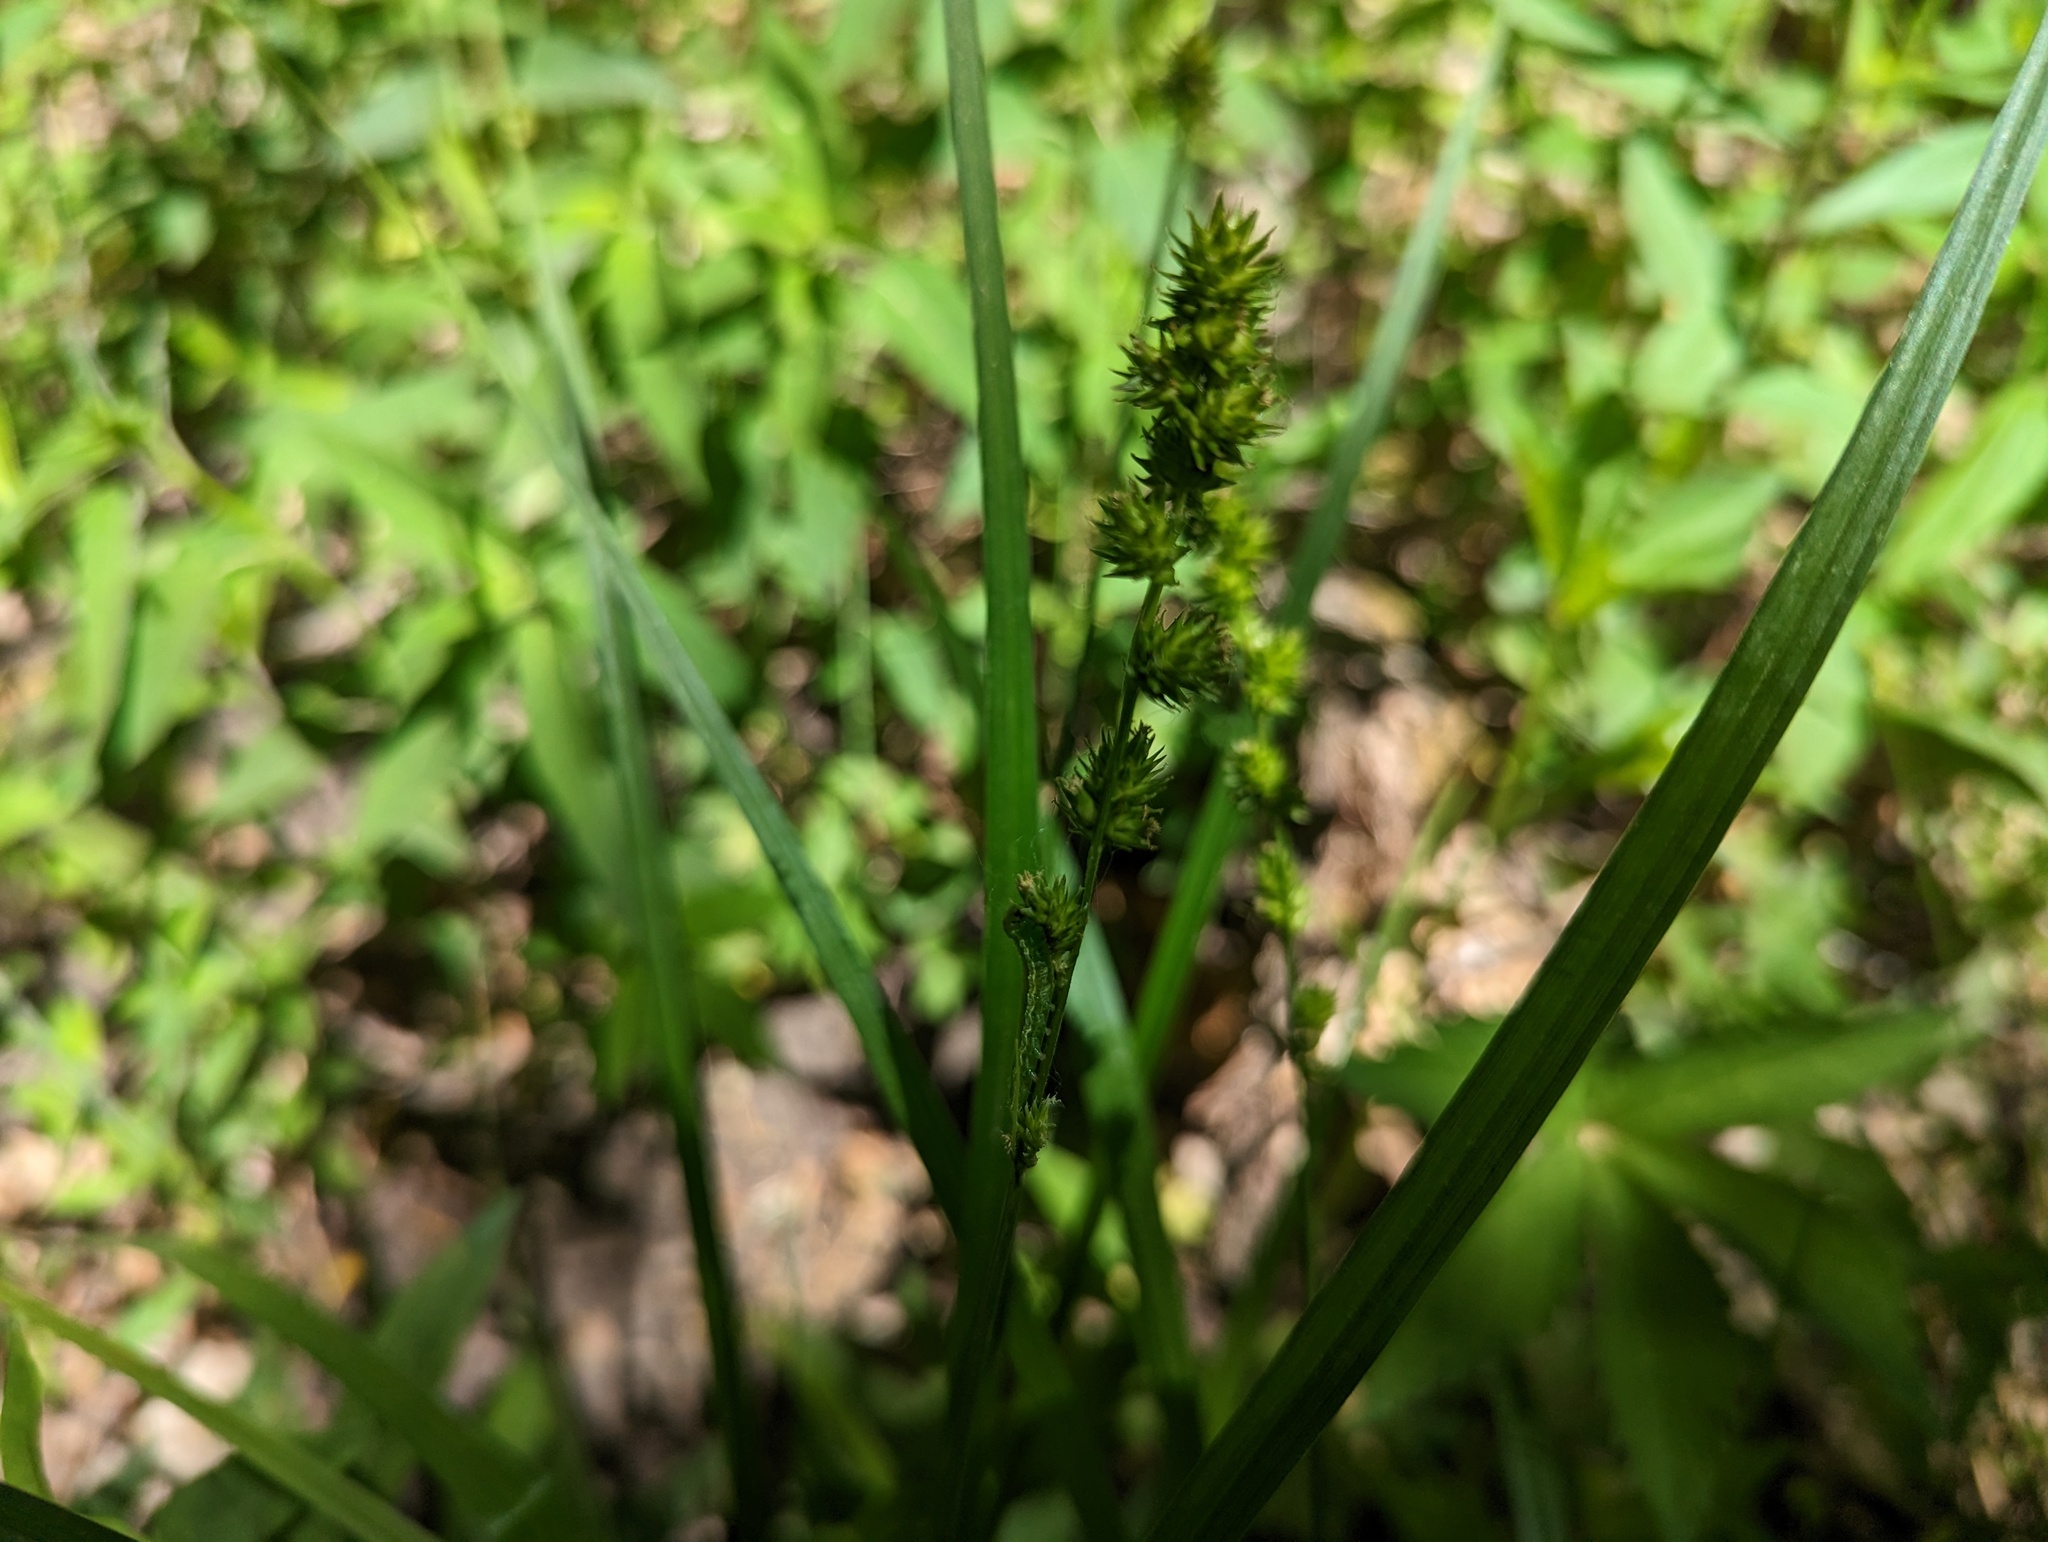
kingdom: Plantae
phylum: Tracheophyta
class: Liliopsida
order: Poales
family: Cyperaceae
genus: Carex
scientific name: Carex sparganioides
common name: Burreed sedge
